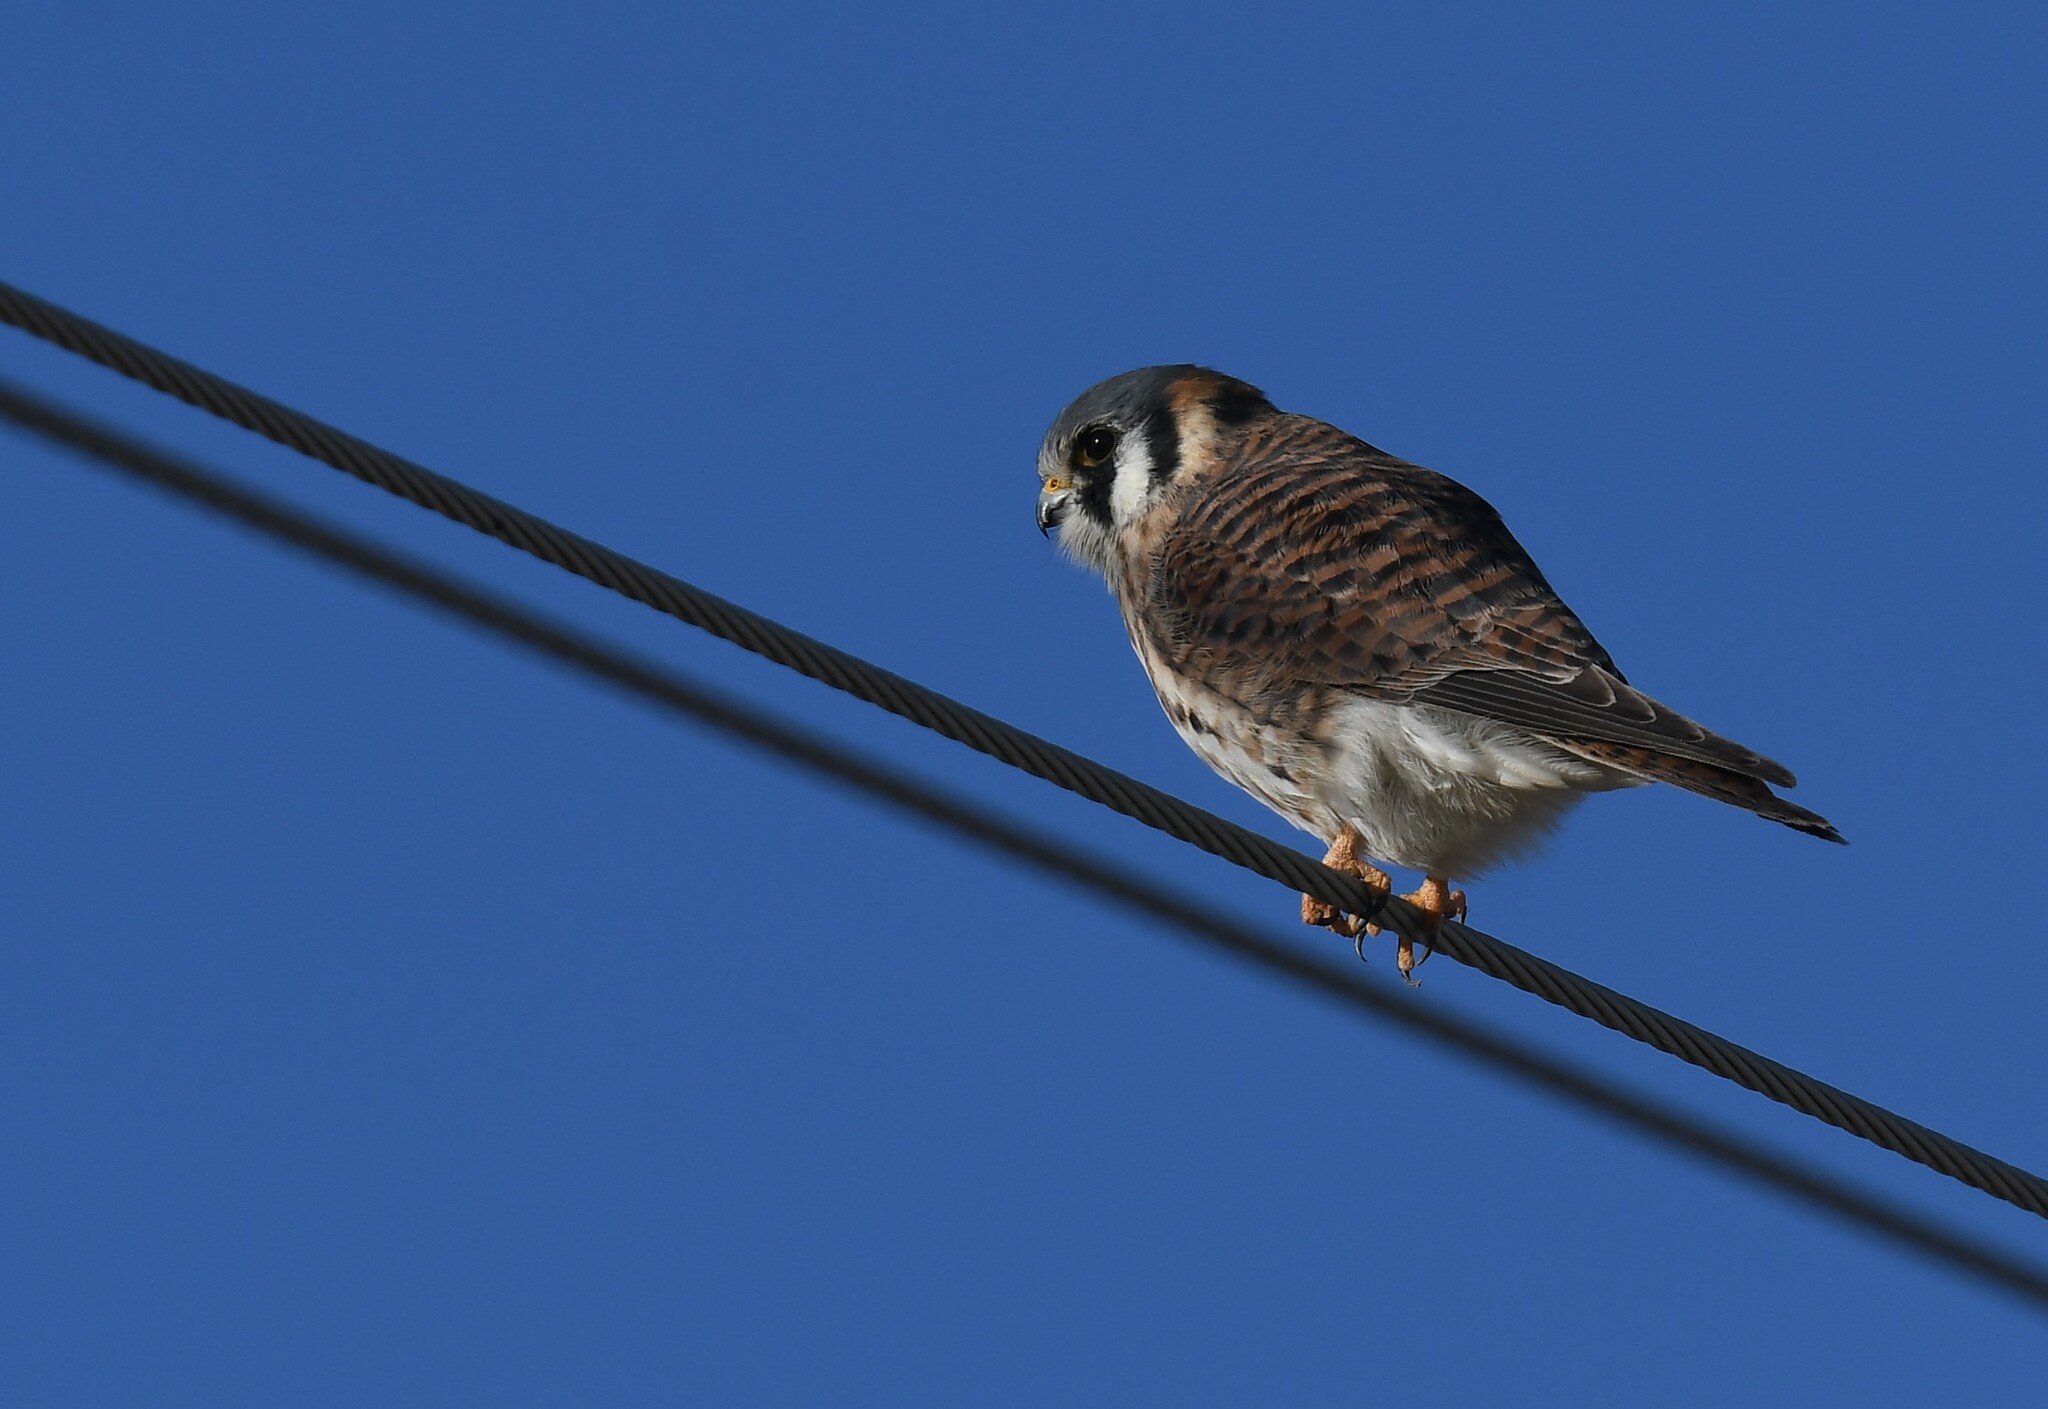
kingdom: Animalia
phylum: Chordata
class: Aves
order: Falconiformes
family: Falconidae
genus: Falco
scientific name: Falco sparverius
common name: American kestrel
